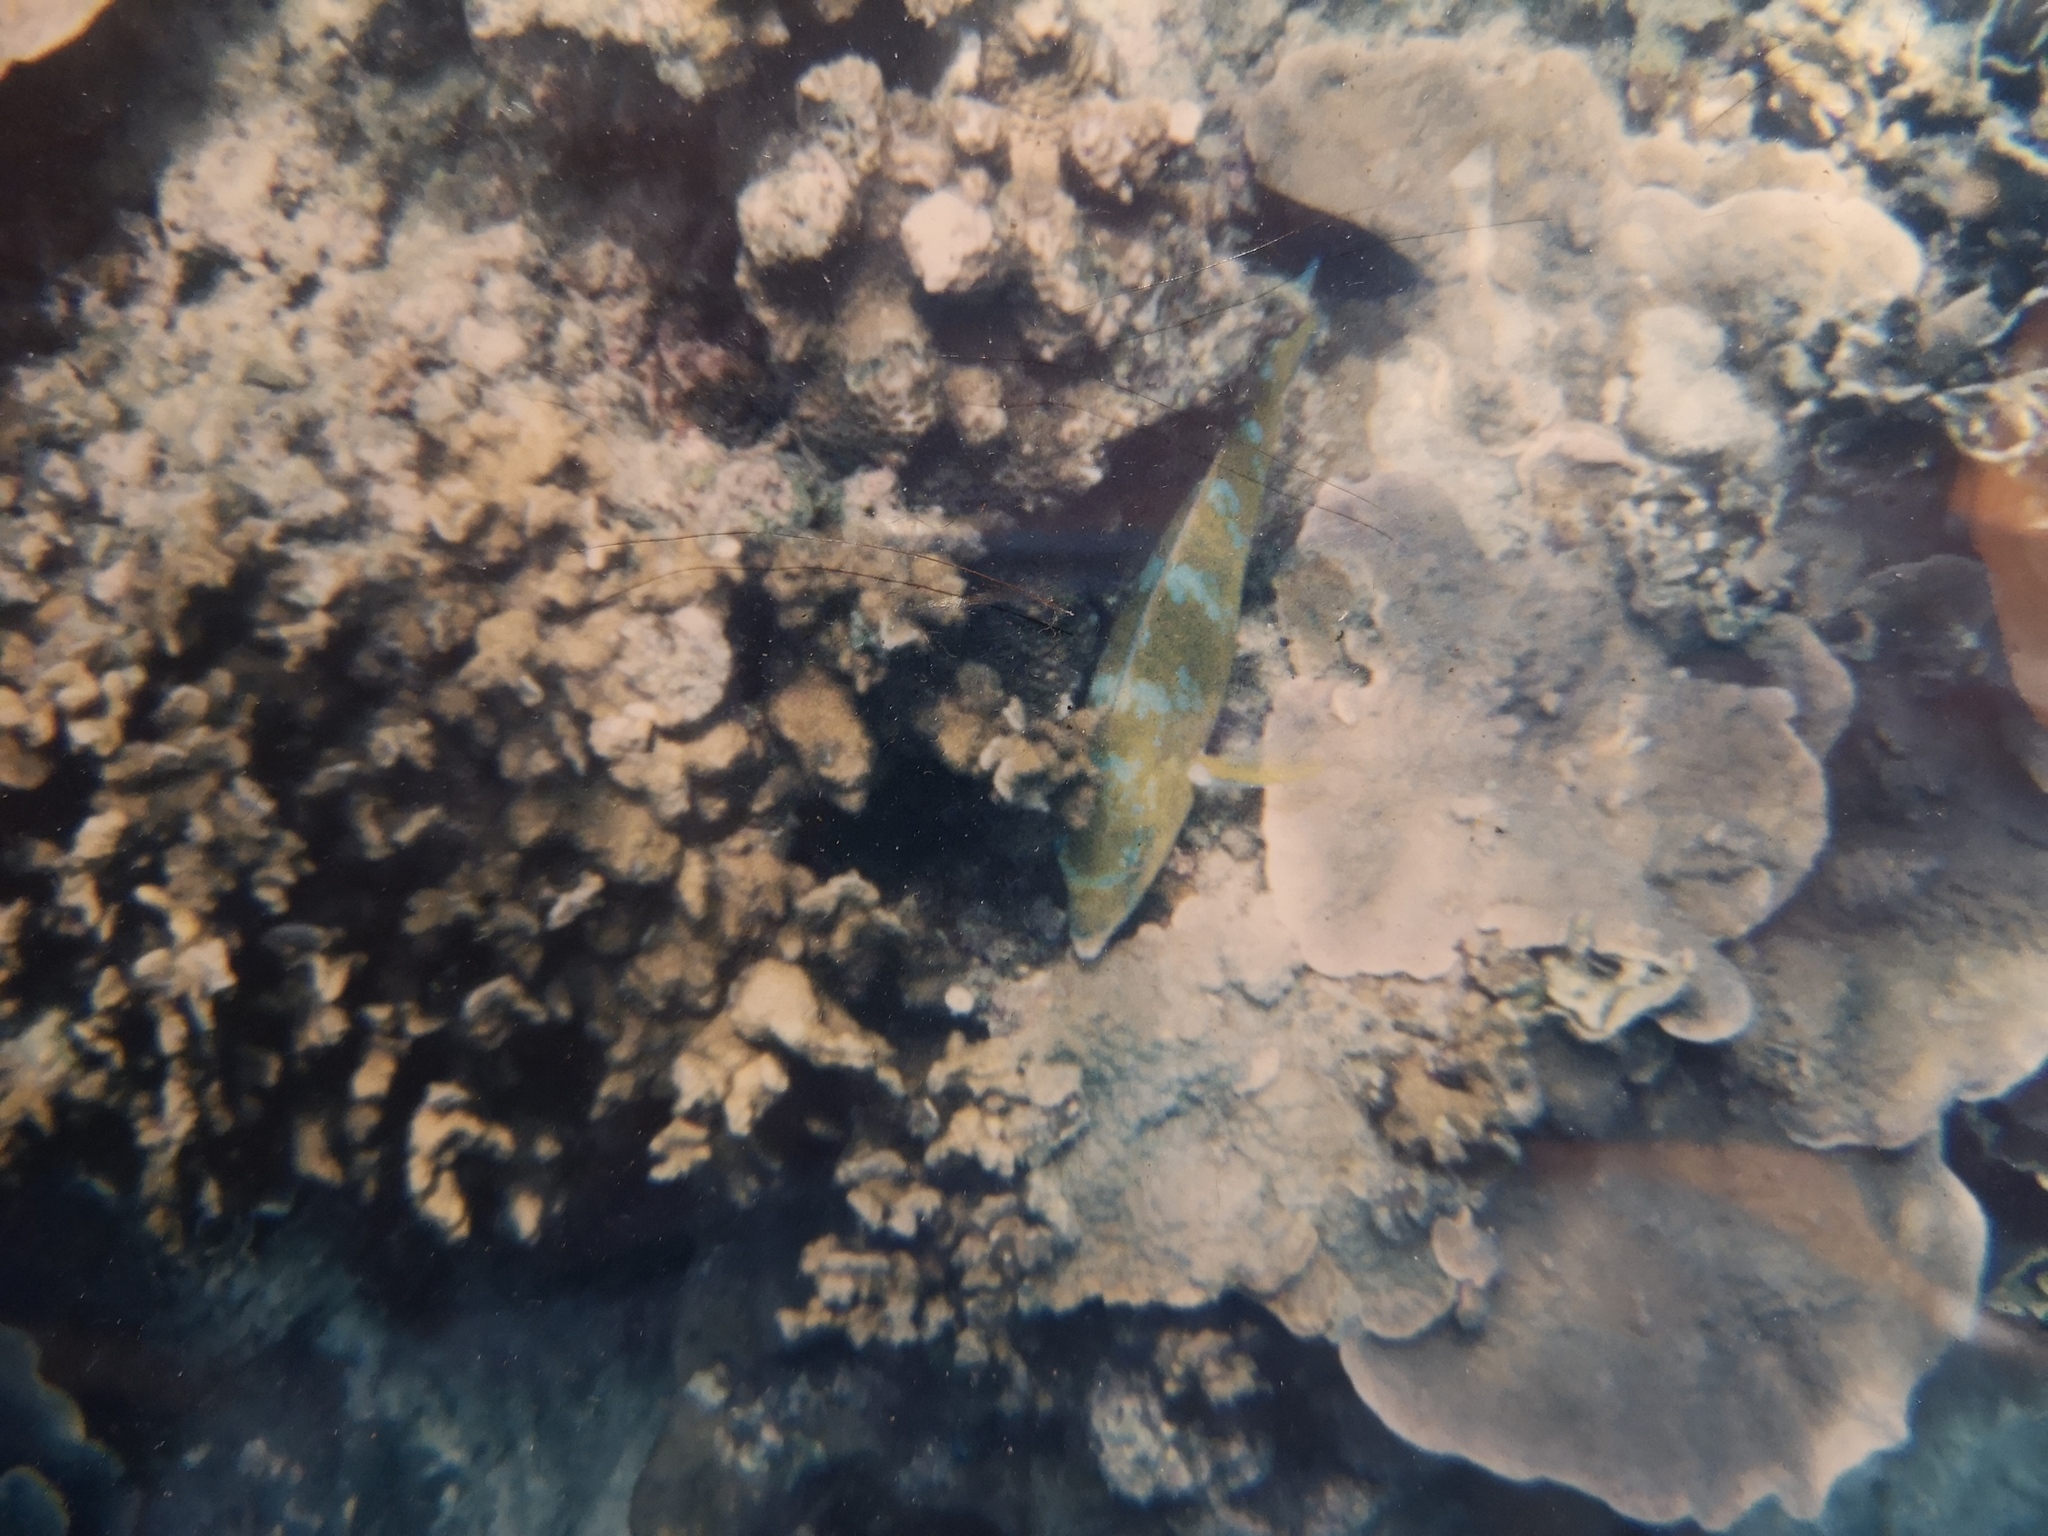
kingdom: Animalia
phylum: Chordata
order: Perciformes
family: Scaridae
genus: Scarus
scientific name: Scarus ghobban
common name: Blue-barred parrotfish
